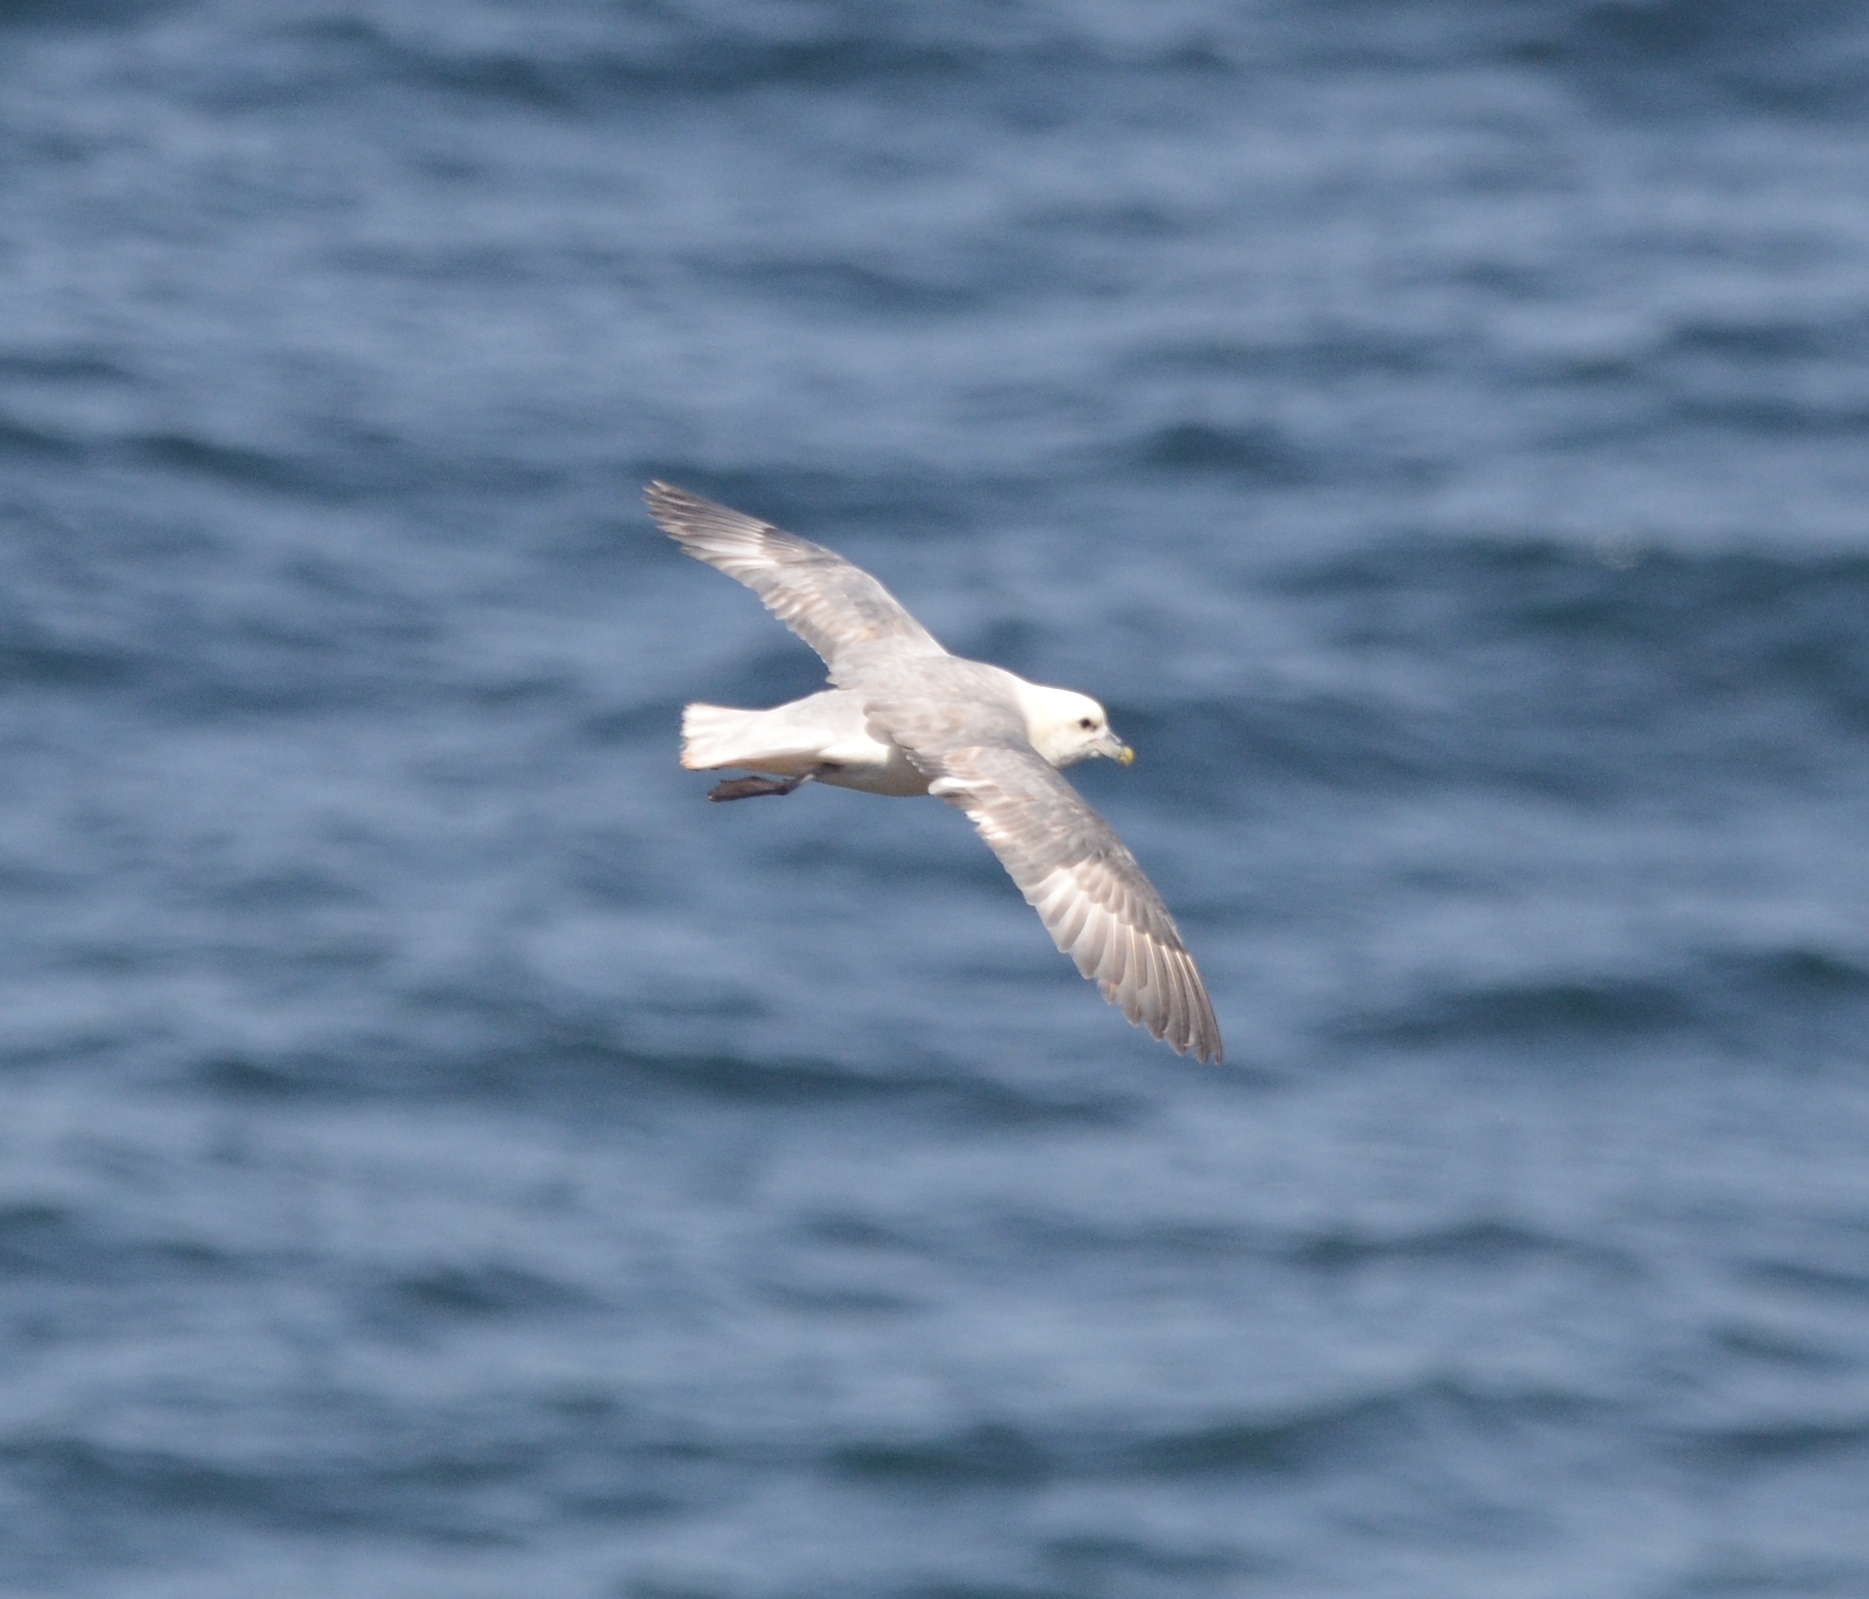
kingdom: Animalia
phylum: Chordata
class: Aves
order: Procellariiformes
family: Procellariidae
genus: Fulmarus
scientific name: Fulmarus glacialis
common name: Northern fulmar
